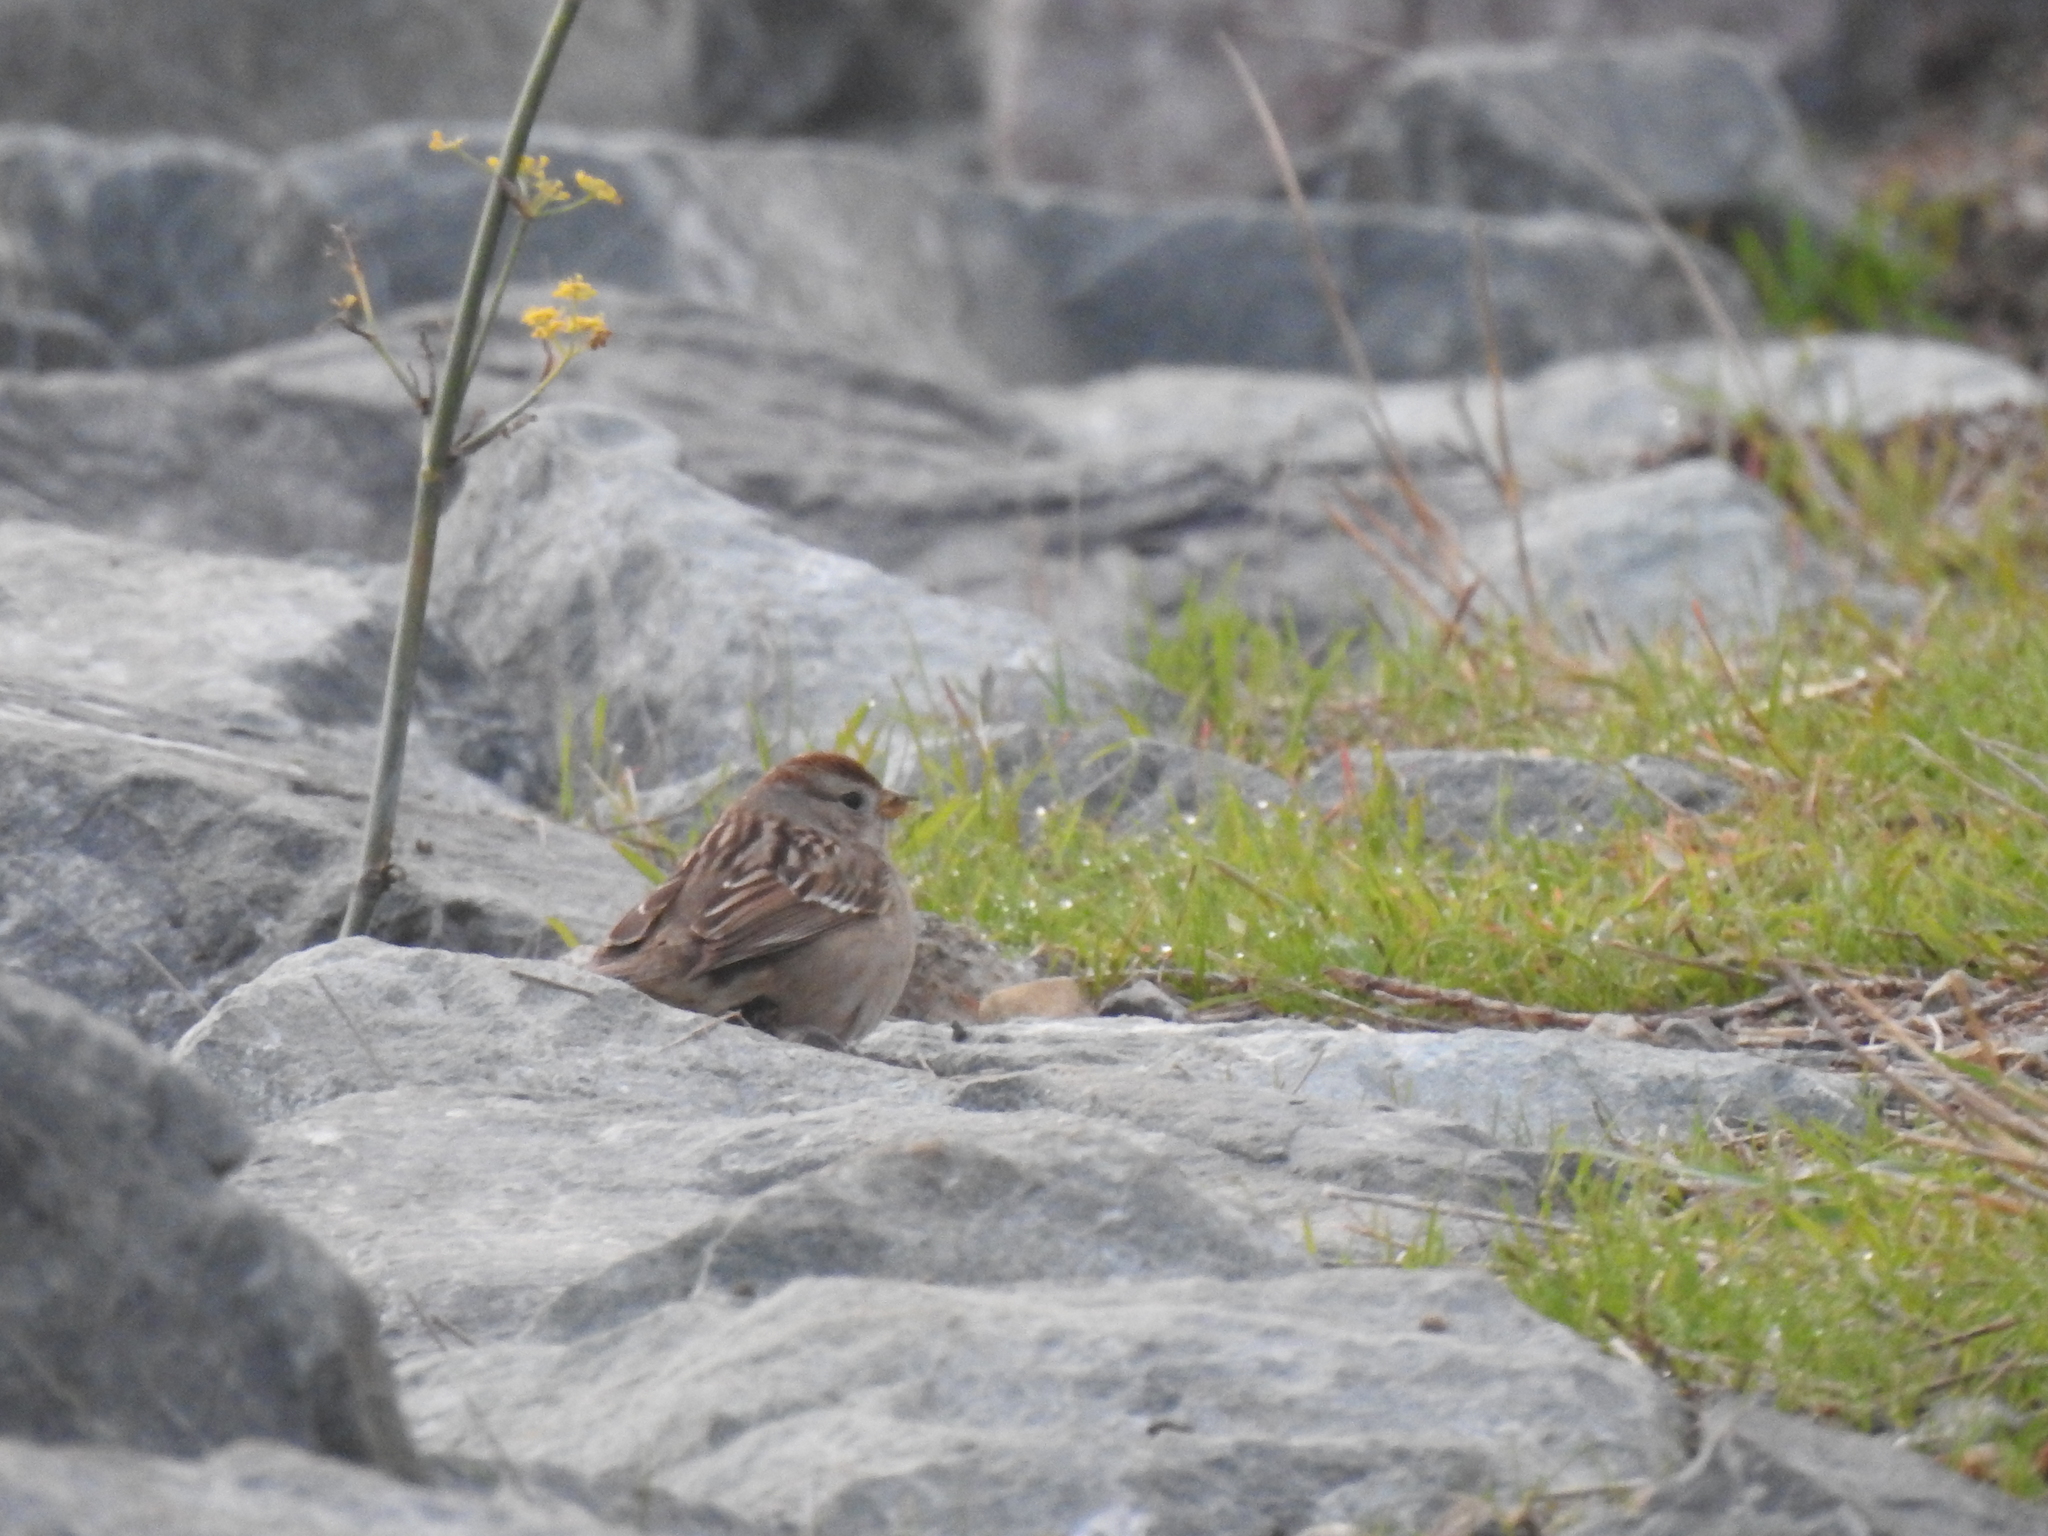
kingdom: Animalia
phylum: Chordata
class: Aves
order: Passeriformes
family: Passerellidae
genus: Zonotrichia
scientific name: Zonotrichia leucophrys
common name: White-crowned sparrow
